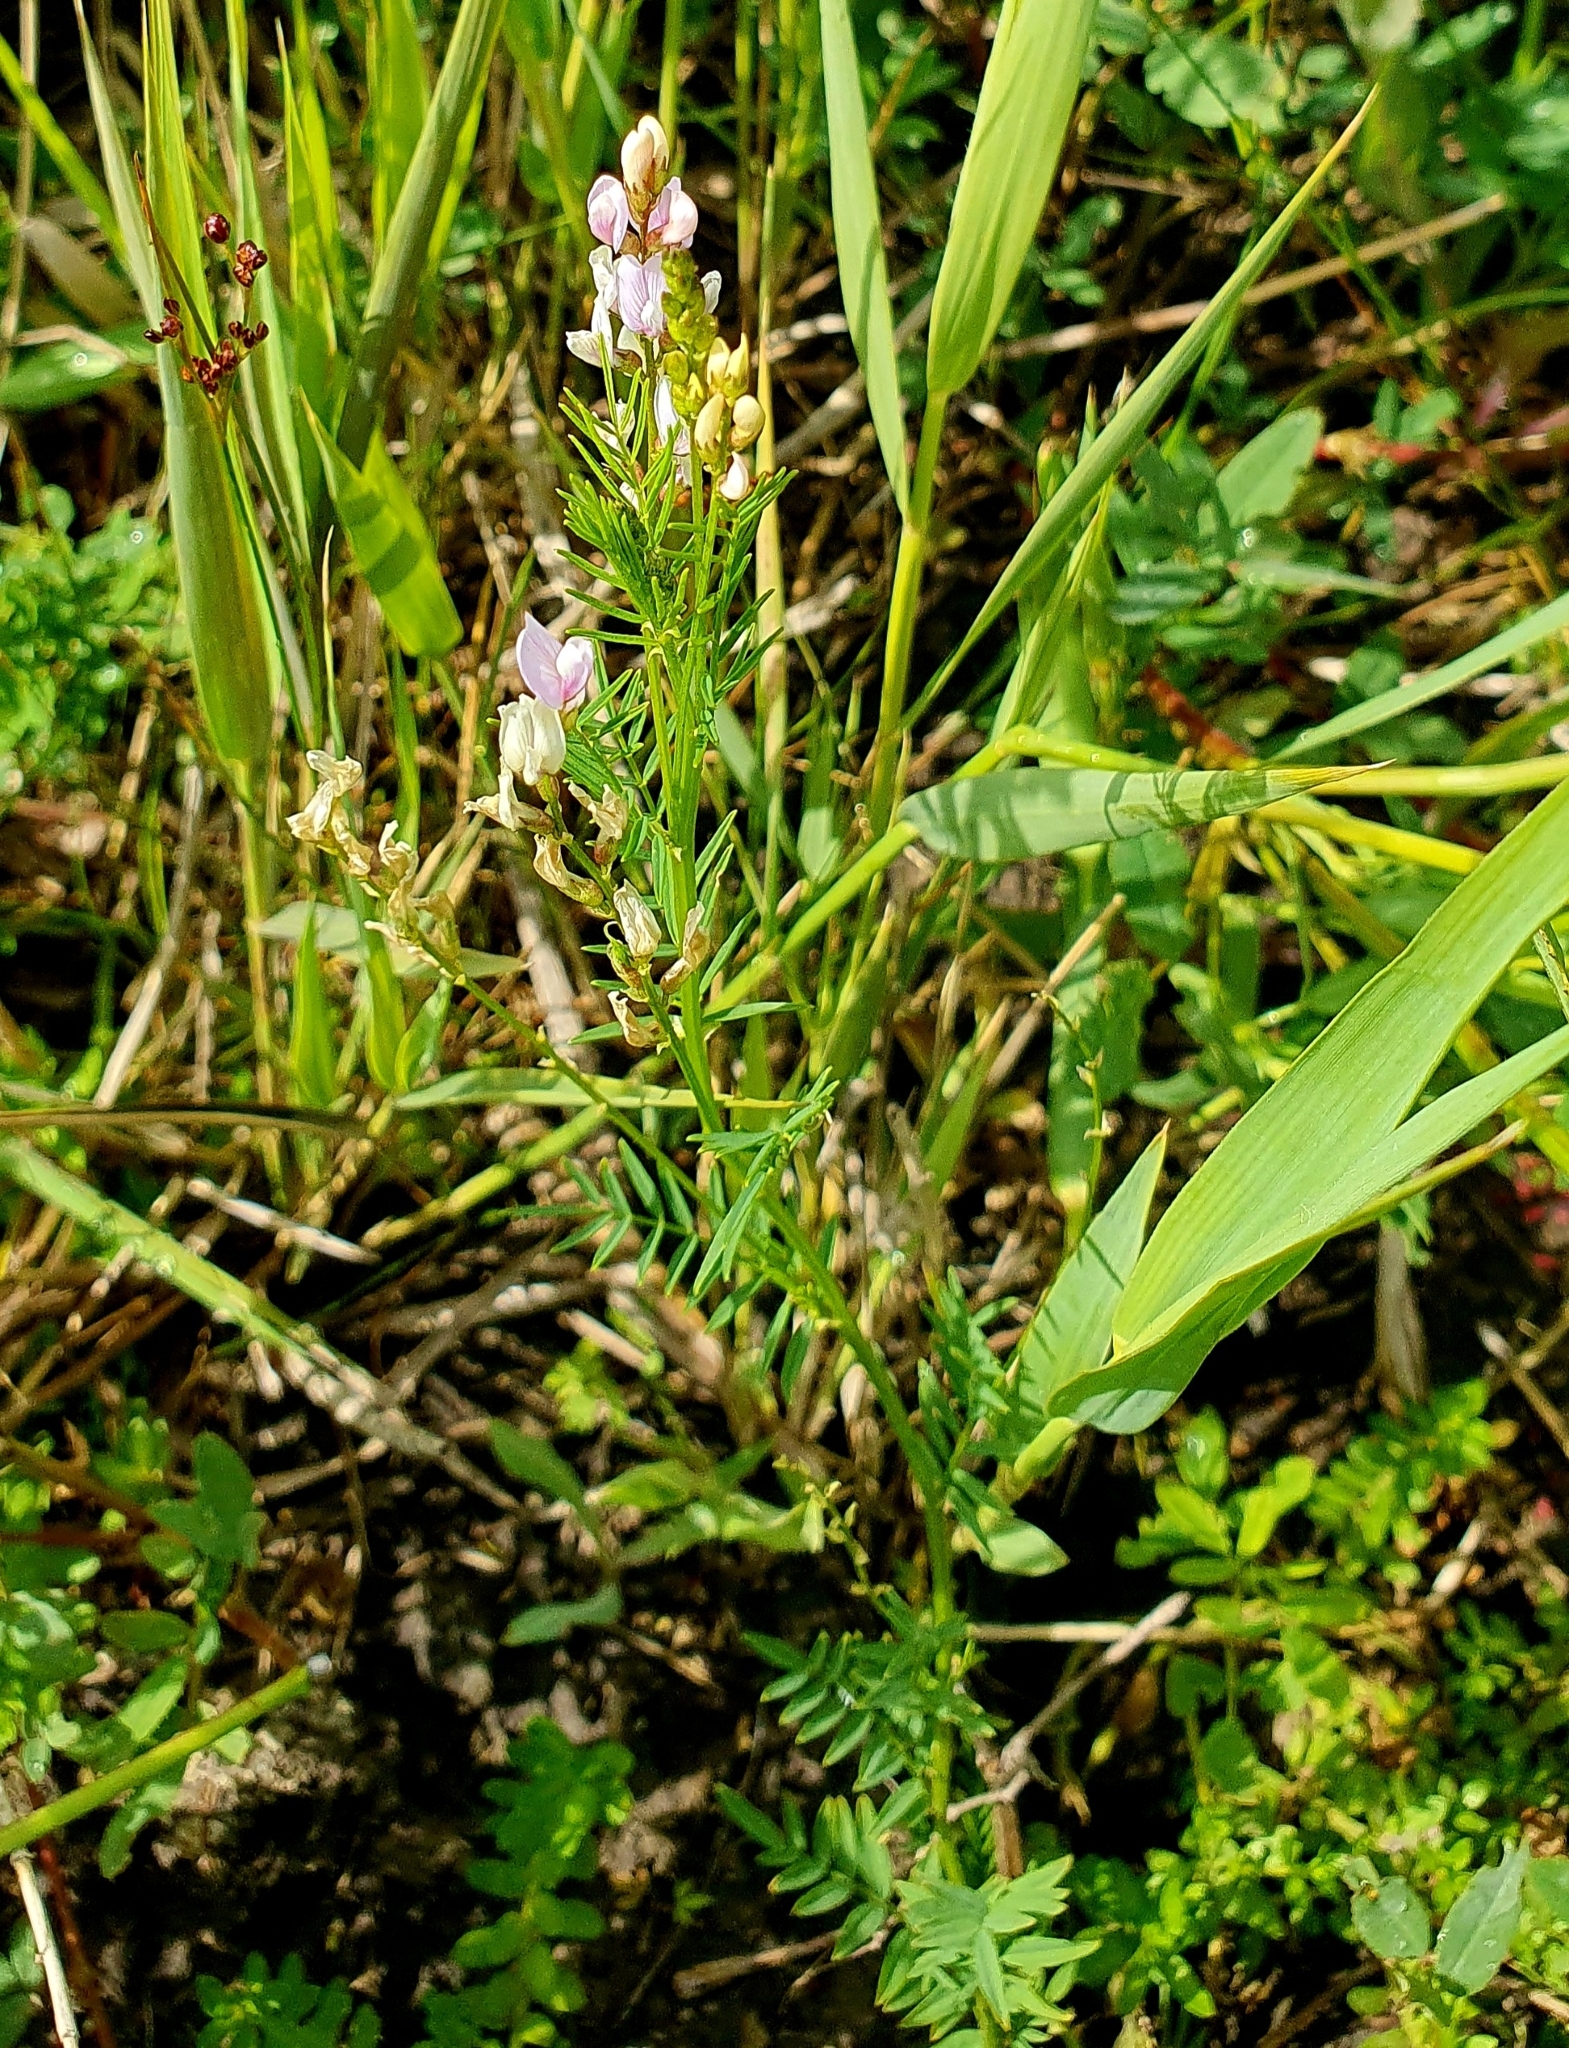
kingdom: Plantae
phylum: Tracheophyta
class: Magnoliopsida
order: Fabales
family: Fabaceae
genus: Astragalus
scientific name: Astragalus sulcatus
